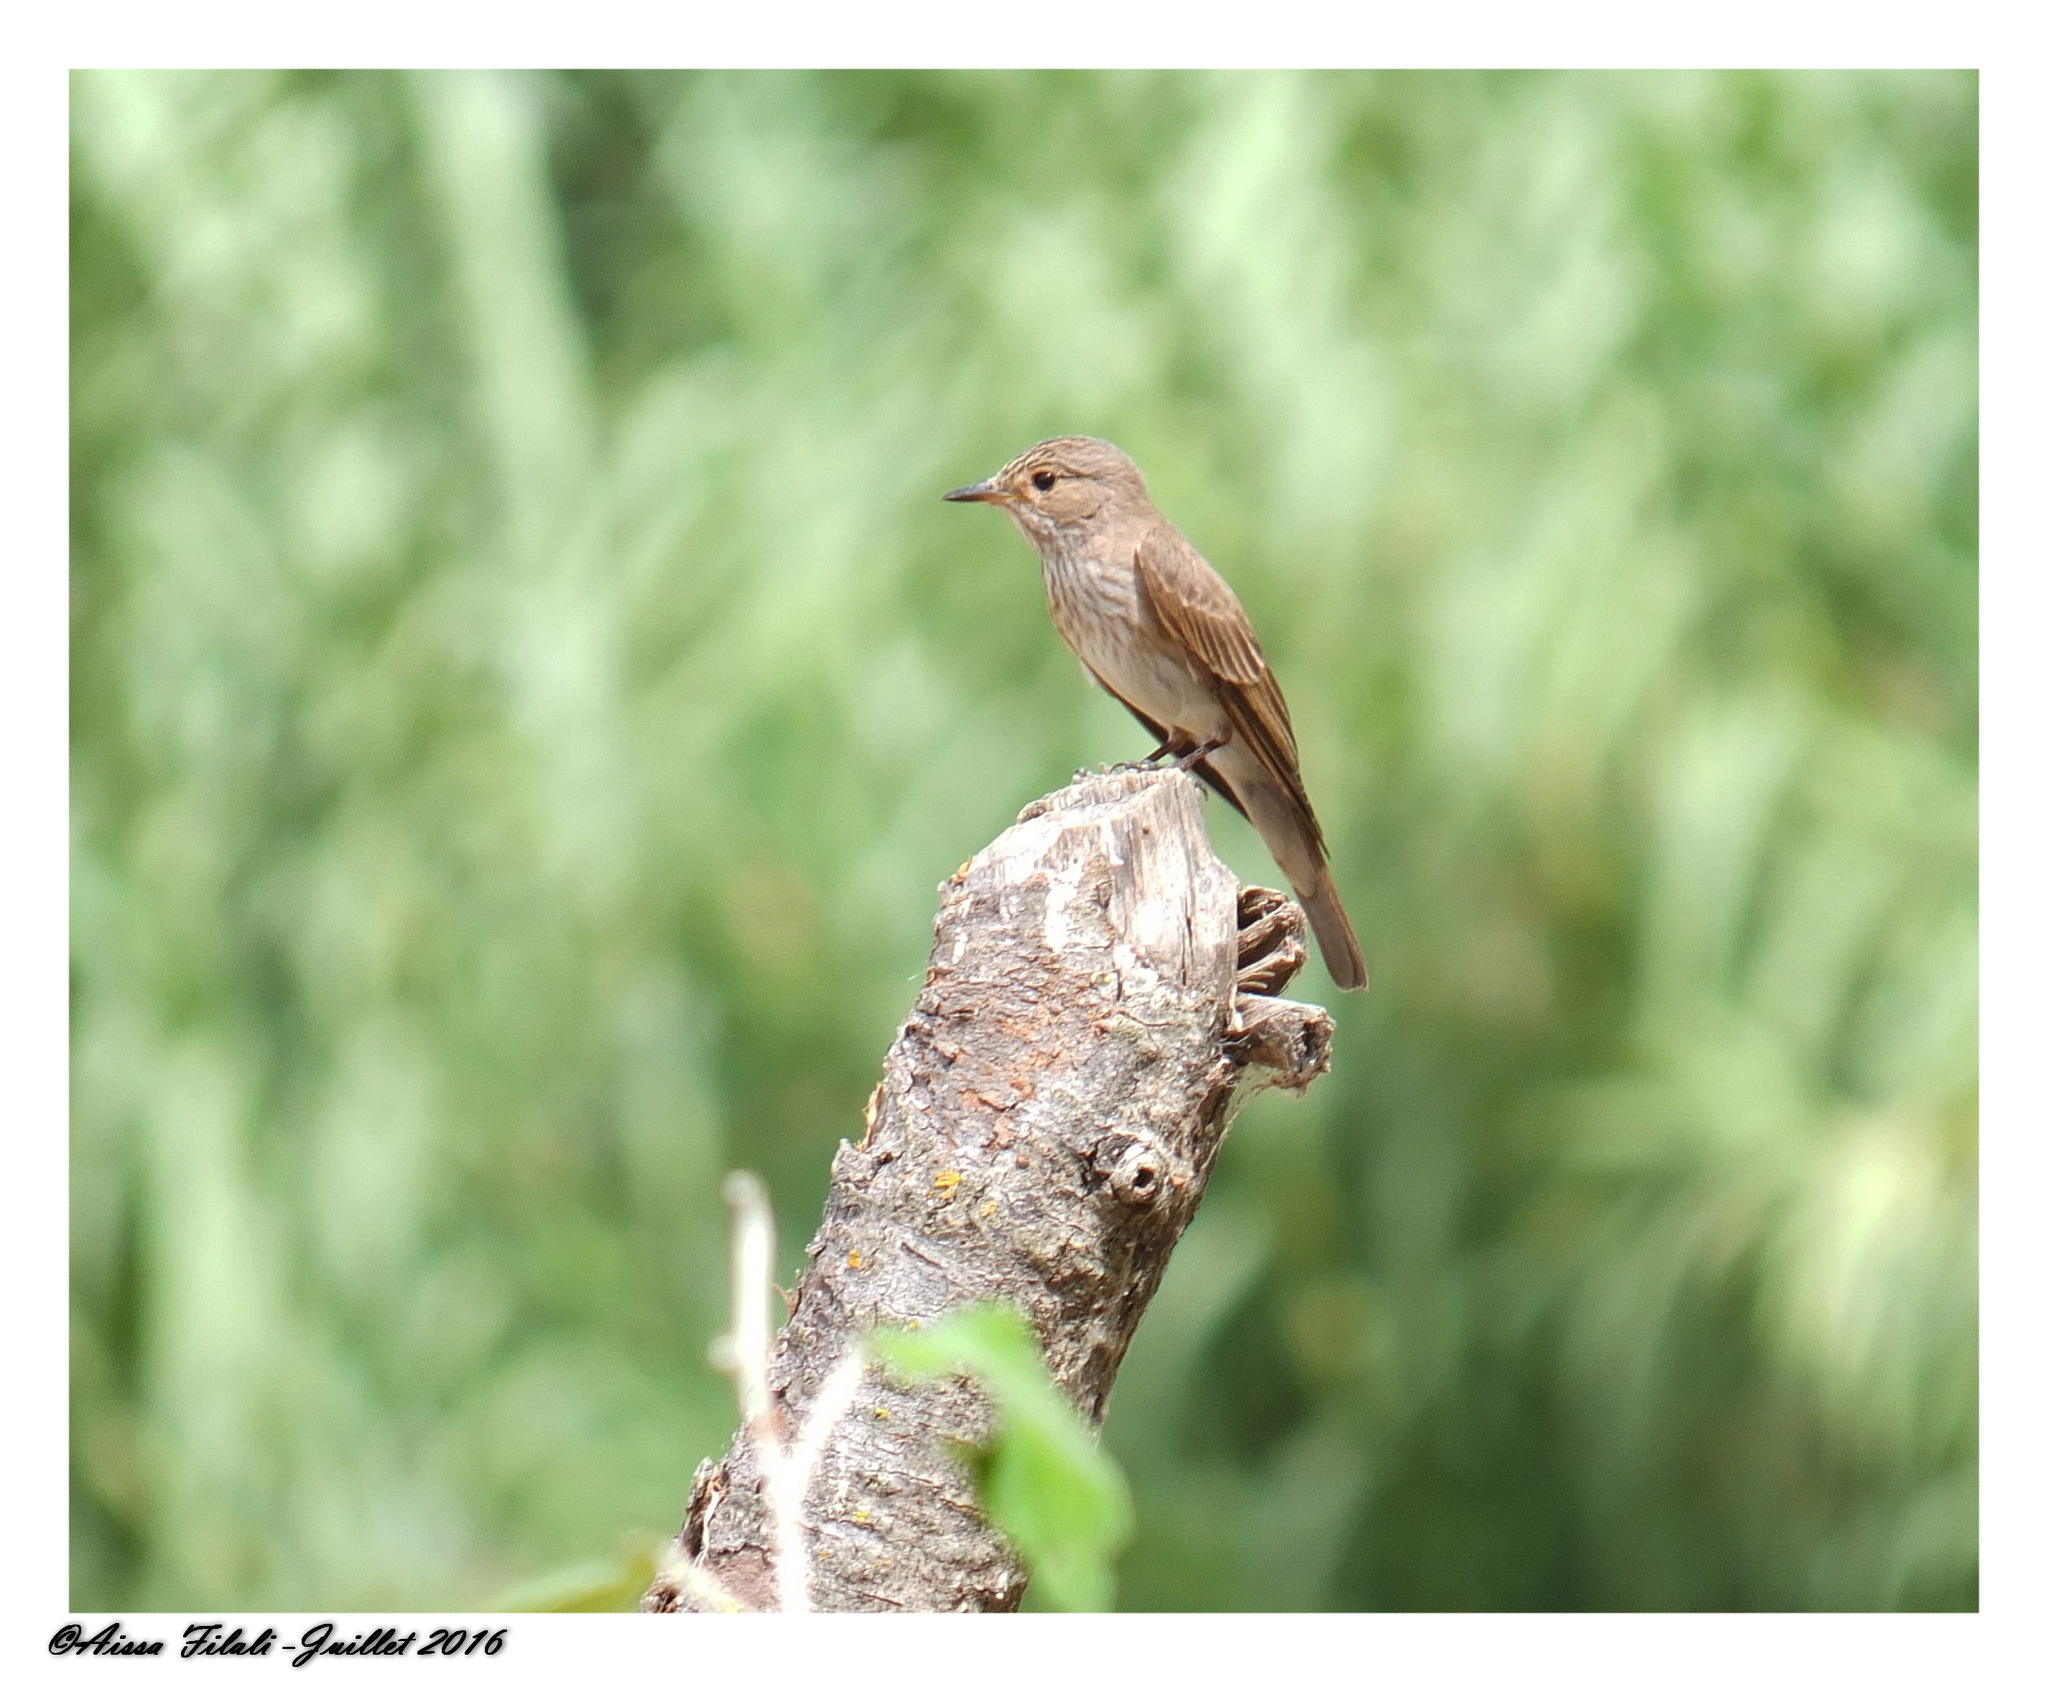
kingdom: Animalia
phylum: Chordata
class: Aves
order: Passeriformes
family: Muscicapidae
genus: Muscicapa
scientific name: Muscicapa striata
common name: Spotted flycatcher
